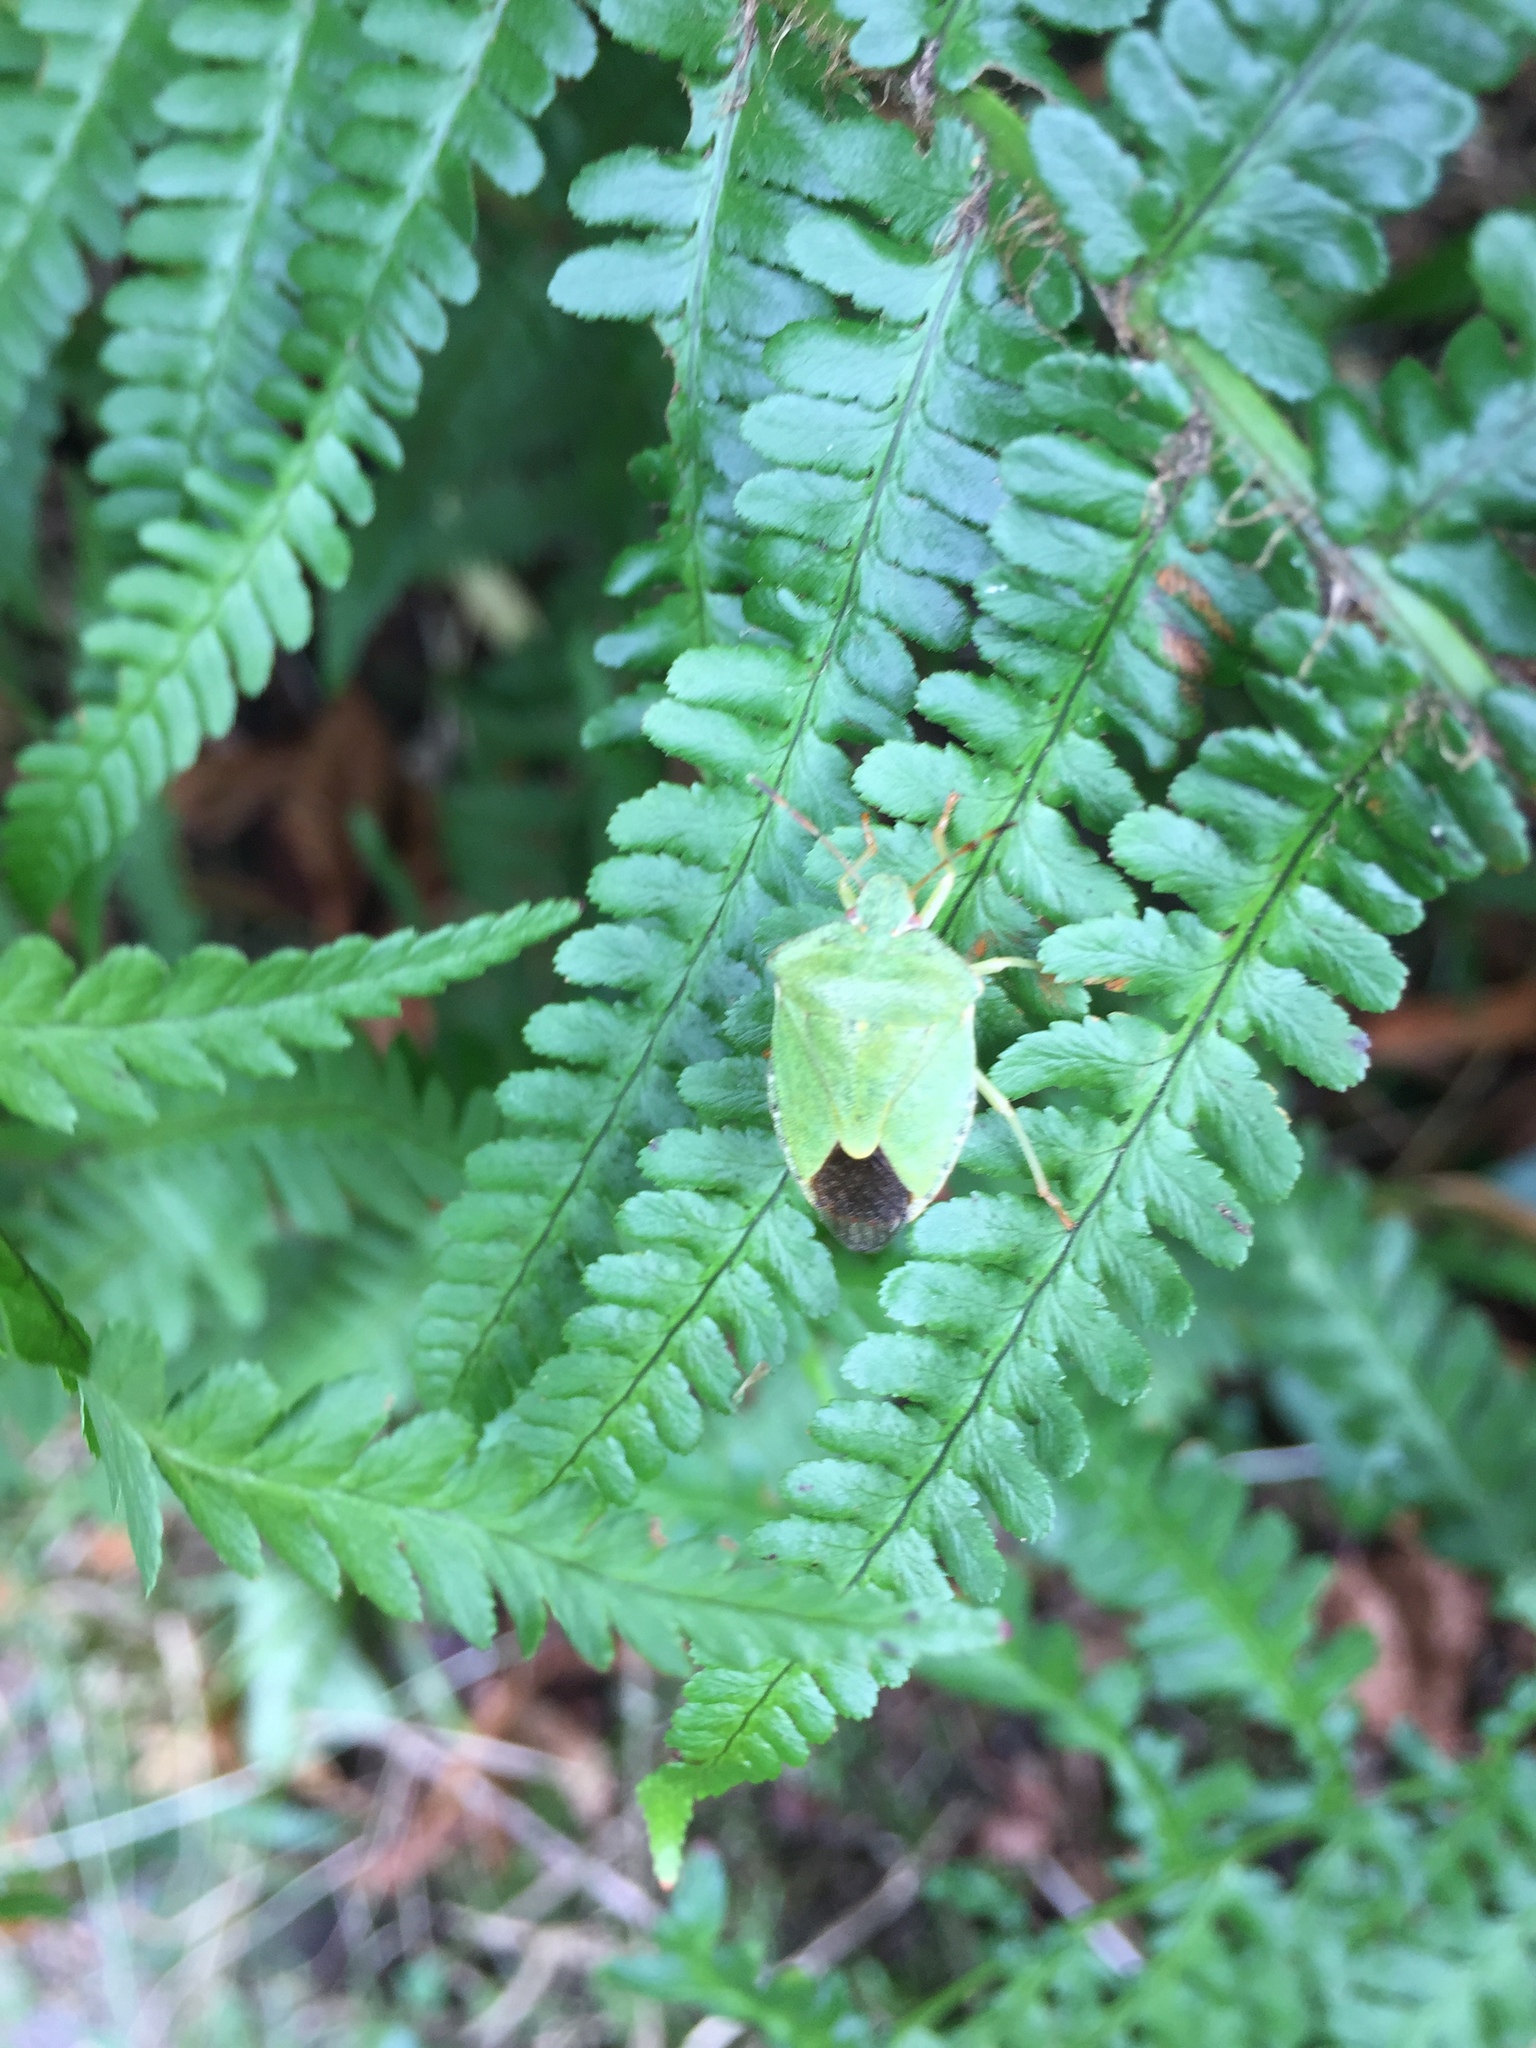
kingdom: Animalia
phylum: Arthropoda
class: Insecta
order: Hemiptera
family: Pentatomidae
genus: Palomena
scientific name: Palomena prasina
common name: Green shieldbug
